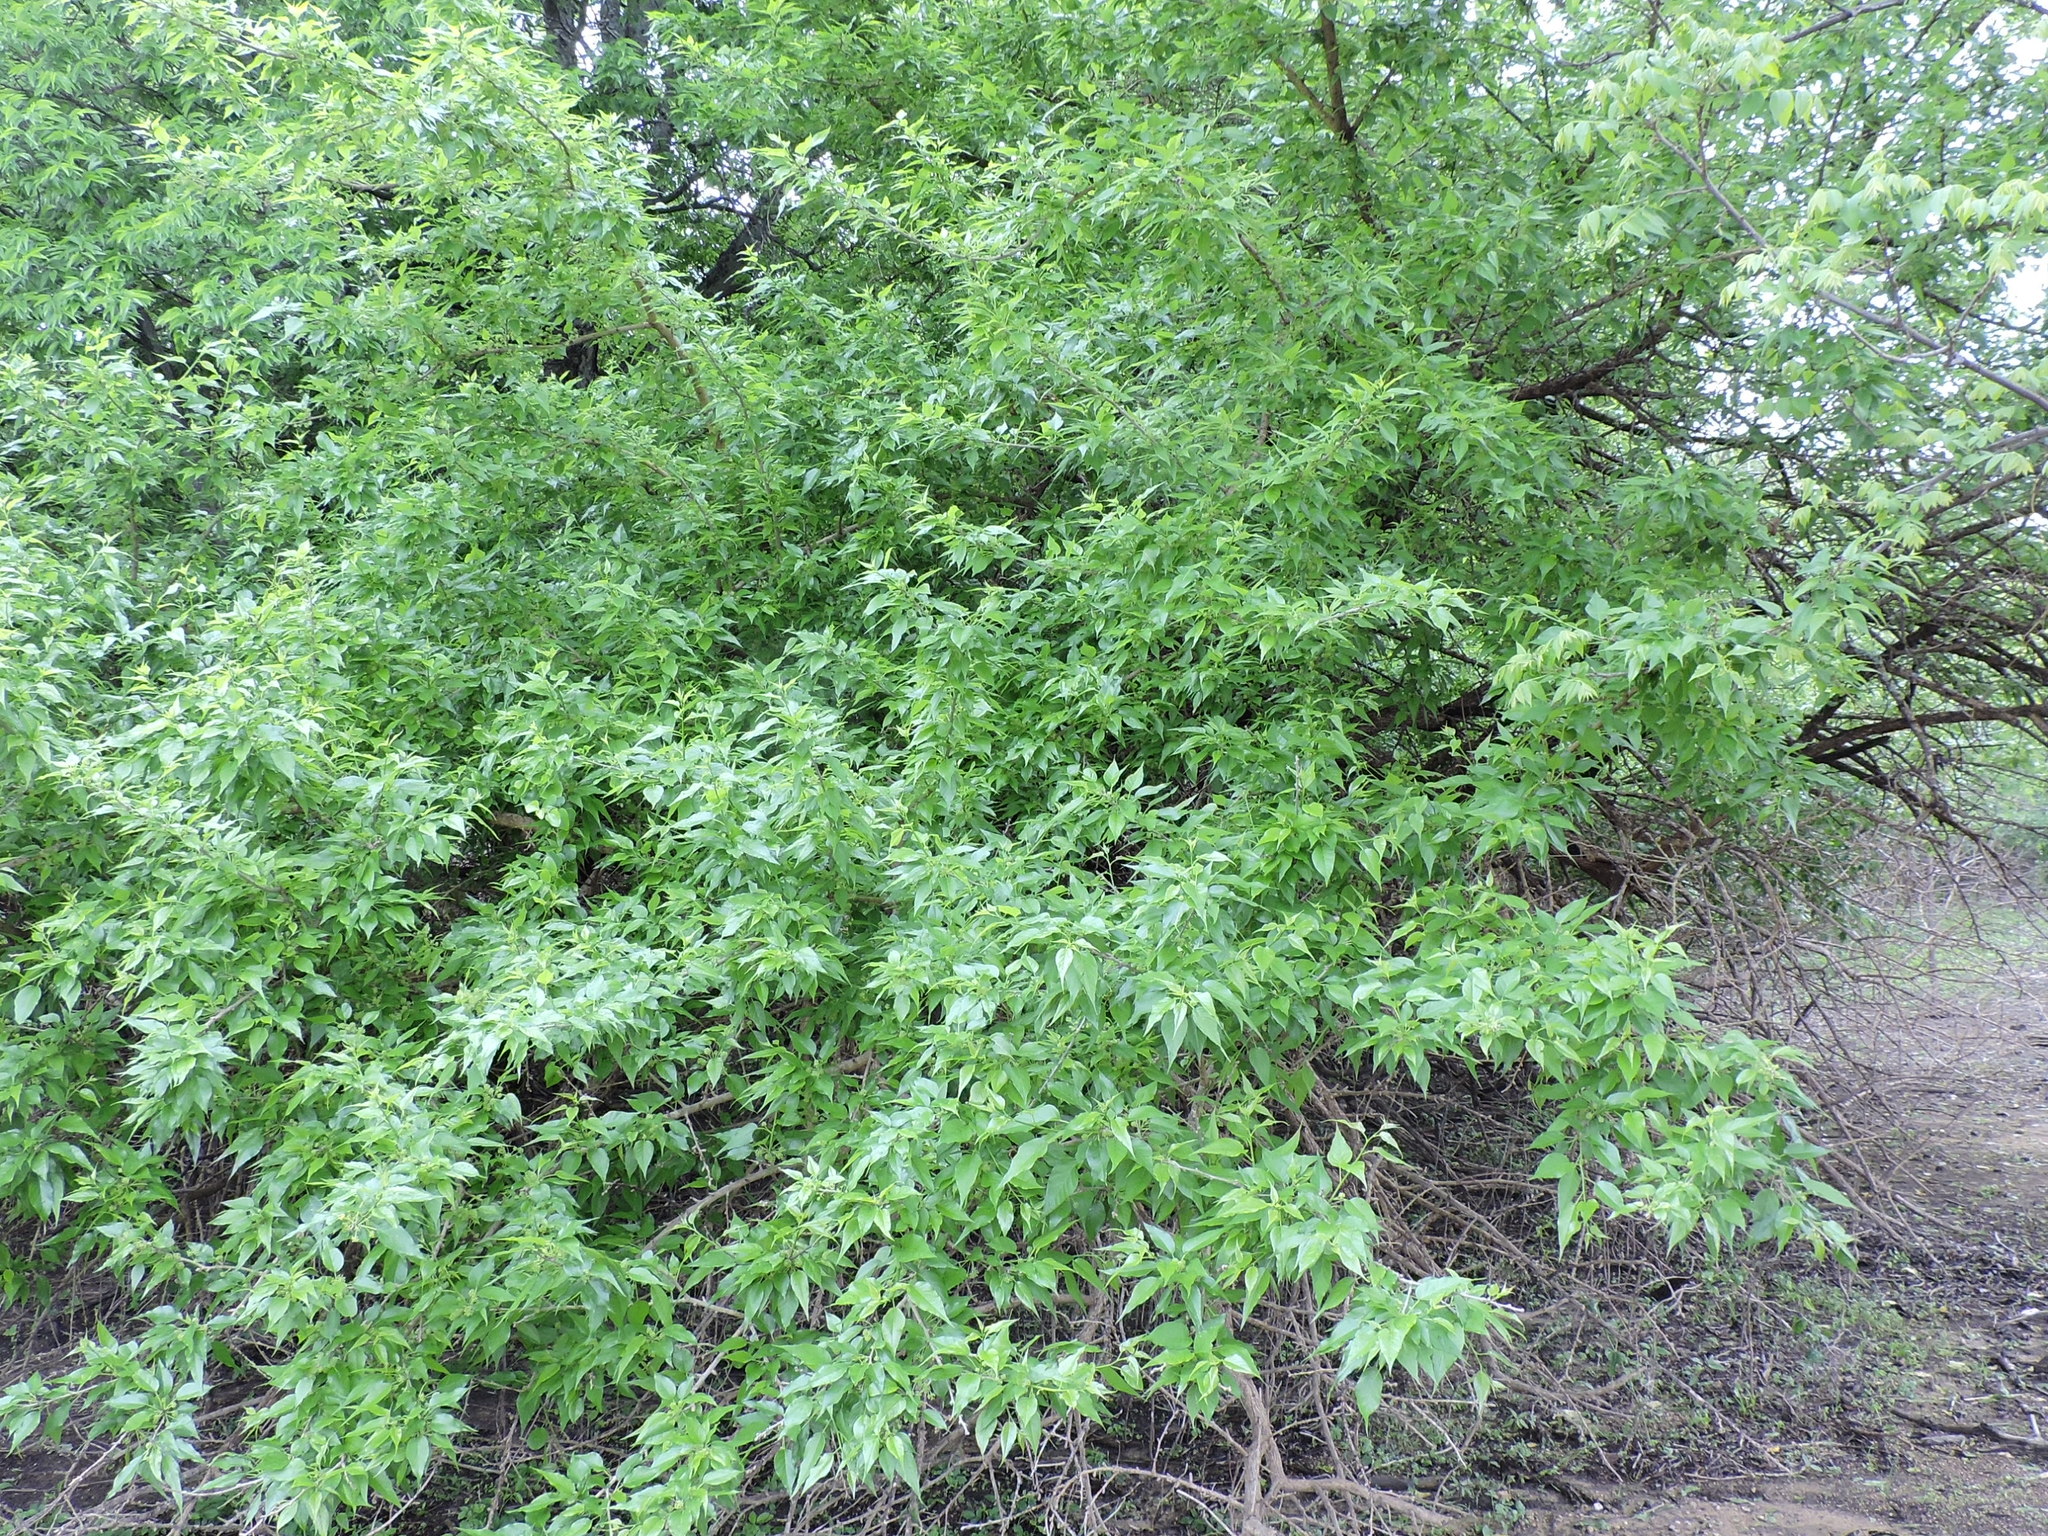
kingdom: Plantae
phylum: Tracheophyta
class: Magnoliopsida
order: Rosales
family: Moraceae
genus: Maclura
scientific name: Maclura pomifera
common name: Osage-orange
